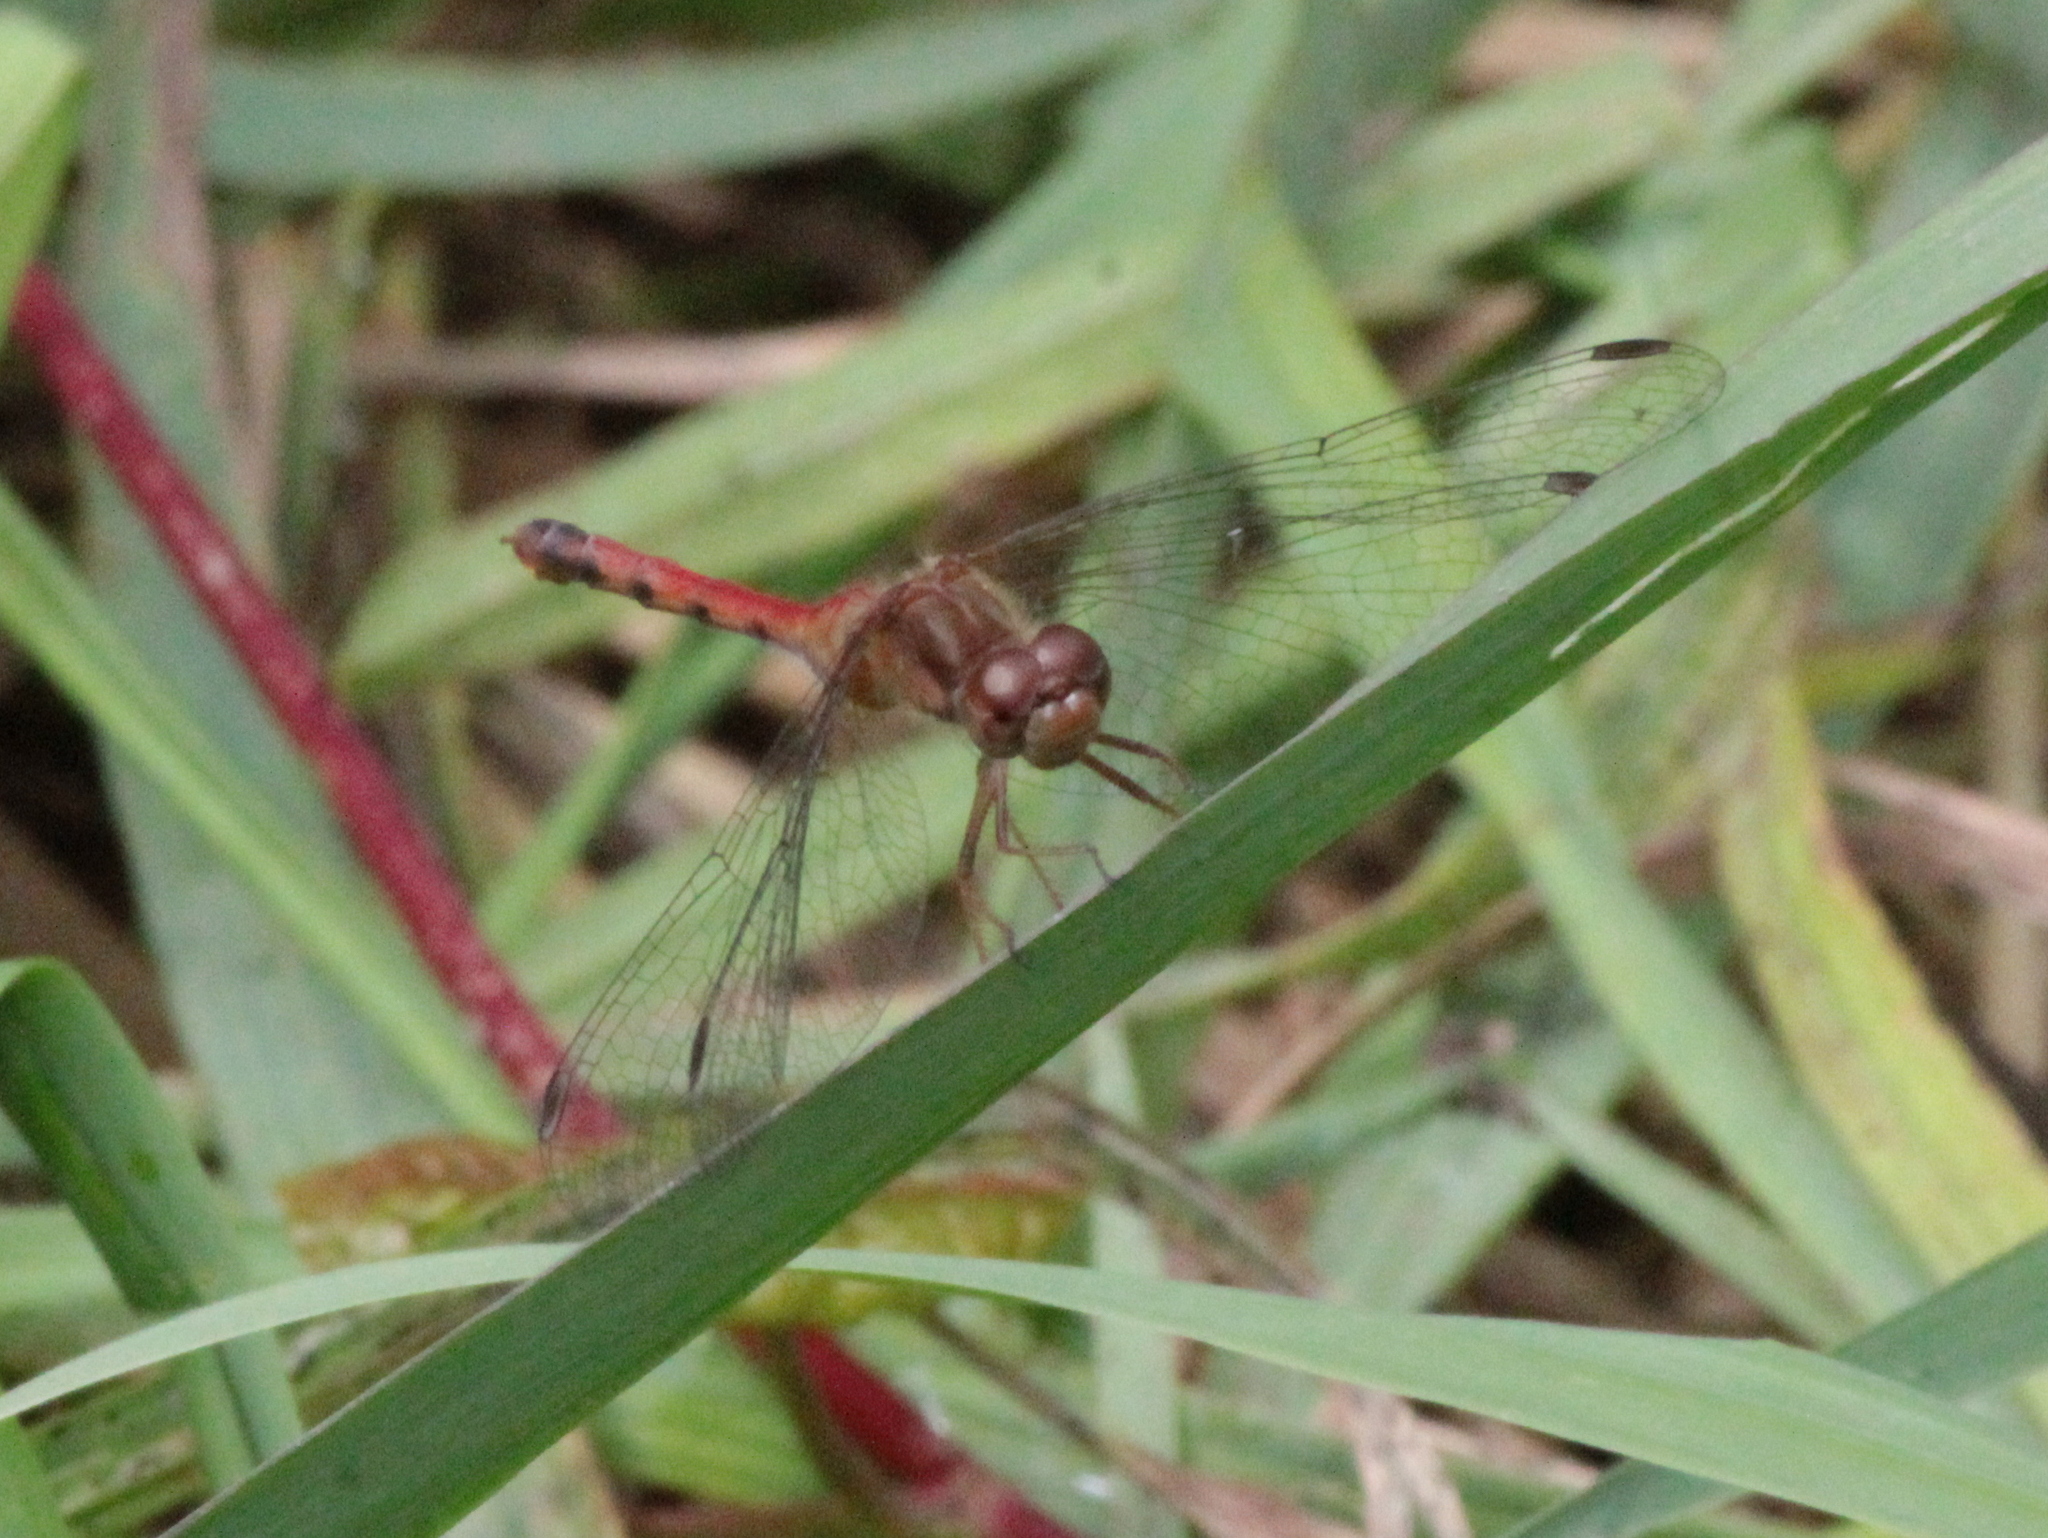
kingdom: Animalia
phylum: Arthropoda
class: Insecta
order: Odonata
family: Libellulidae
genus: Sympetrum
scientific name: Sympetrum vicinum
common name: Autumn meadowhawk
